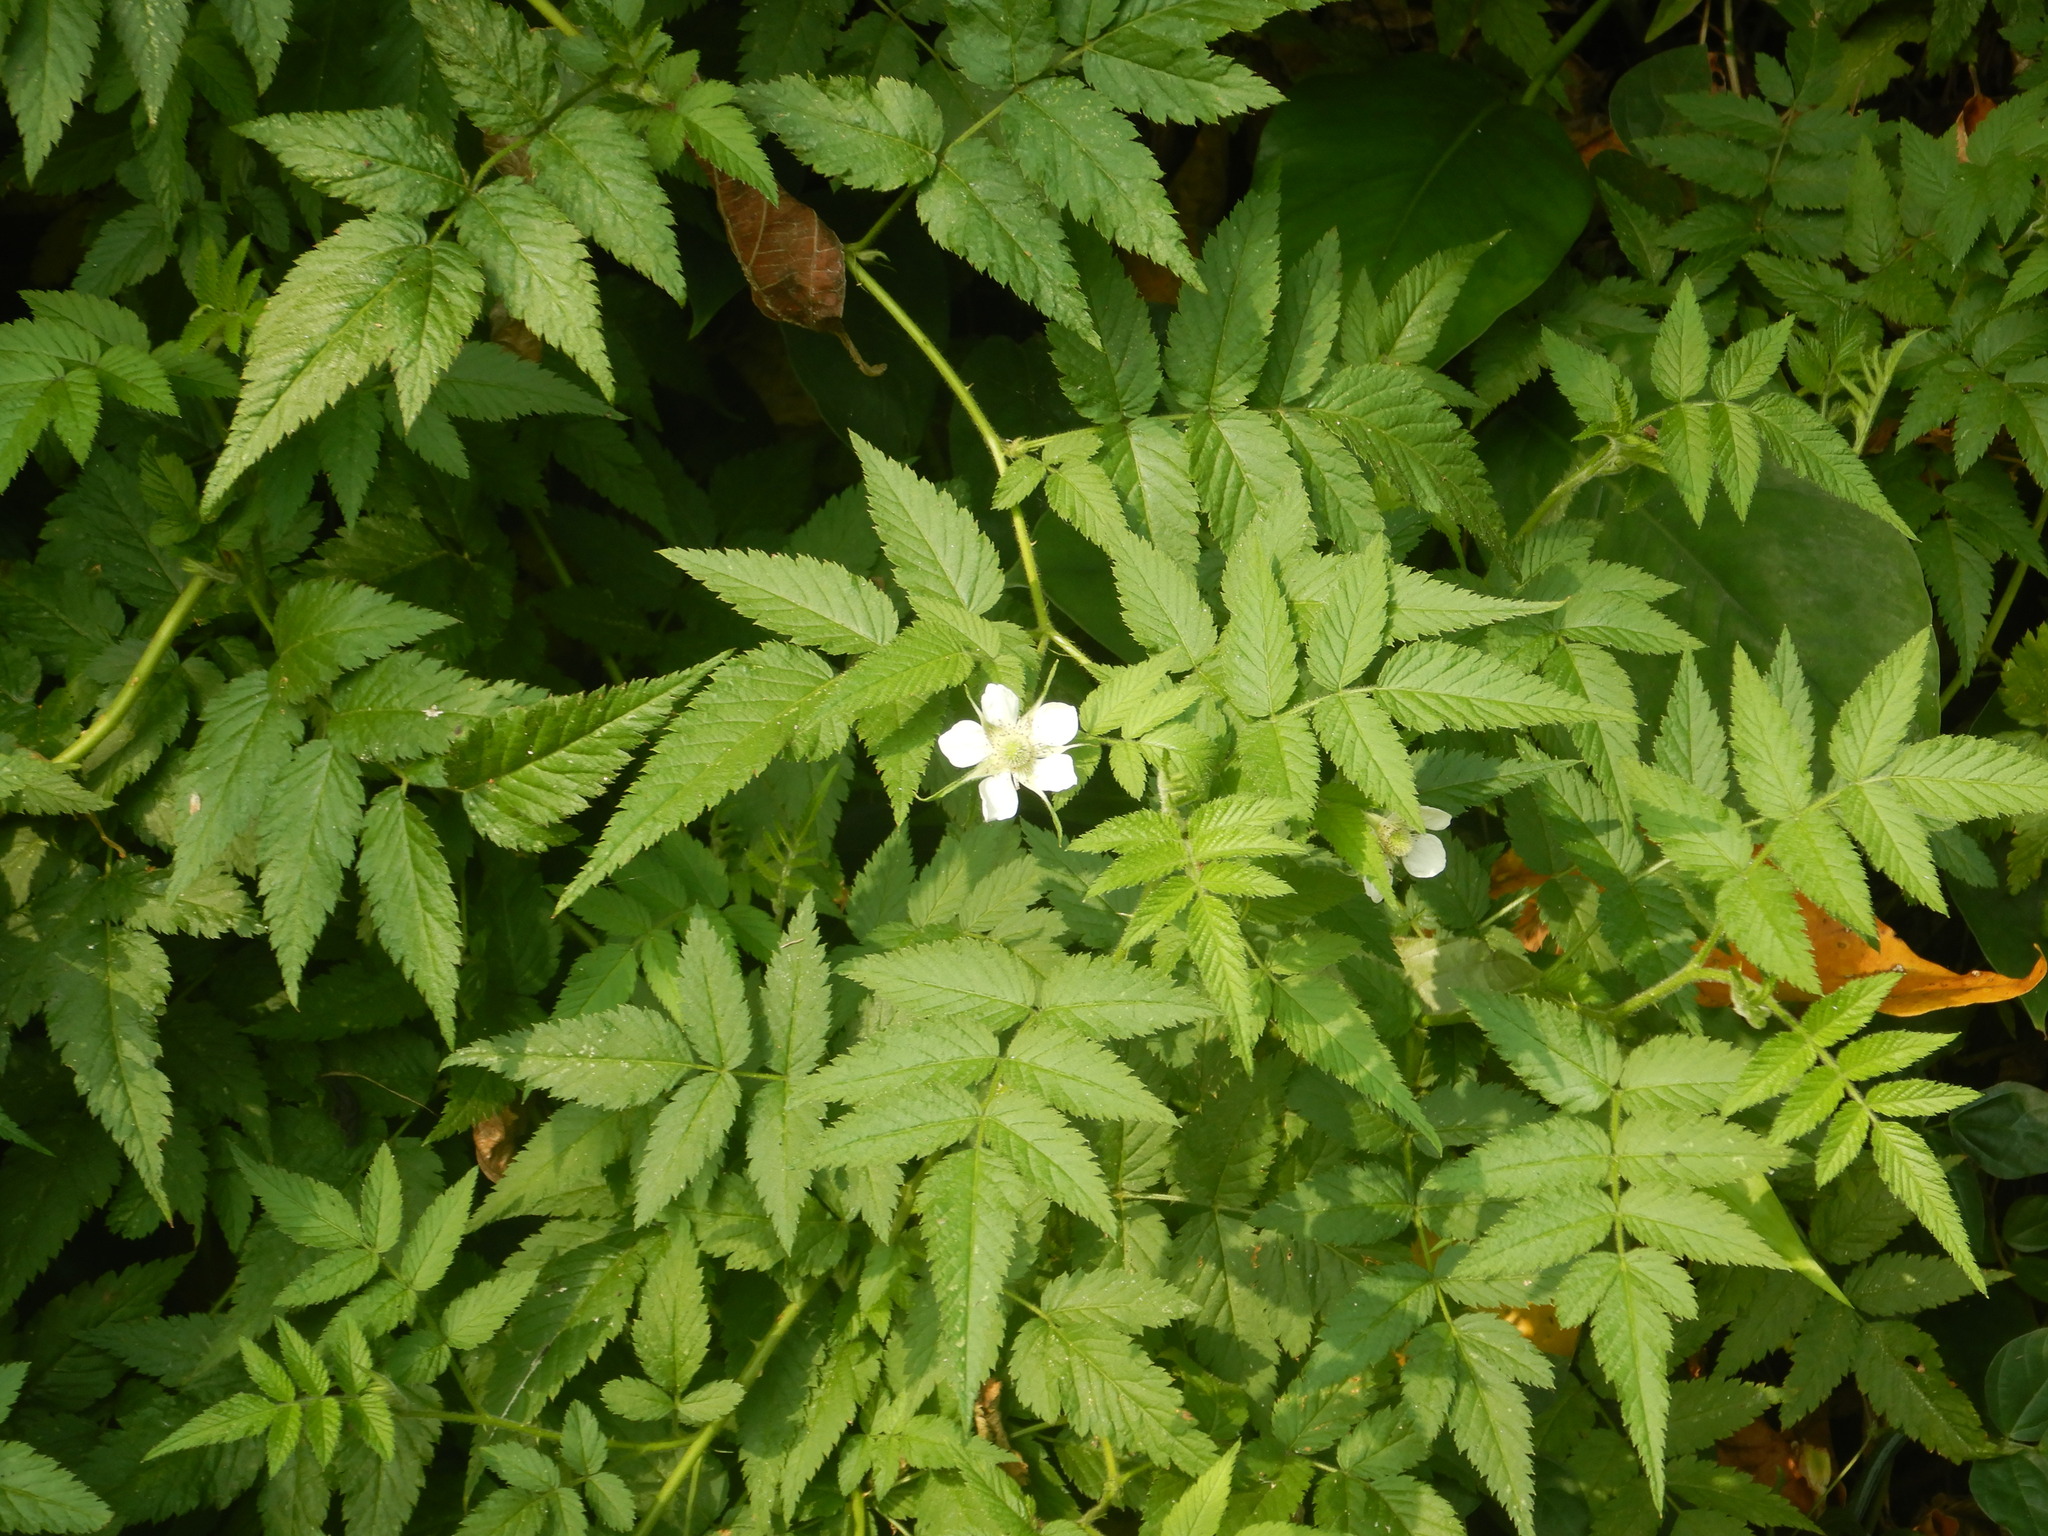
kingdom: Plantae
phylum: Tracheophyta
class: Magnoliopsida
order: Rosales
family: Rosaceae
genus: Rubus
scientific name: Rubus rosifolius
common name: Roseleaf raspberry
